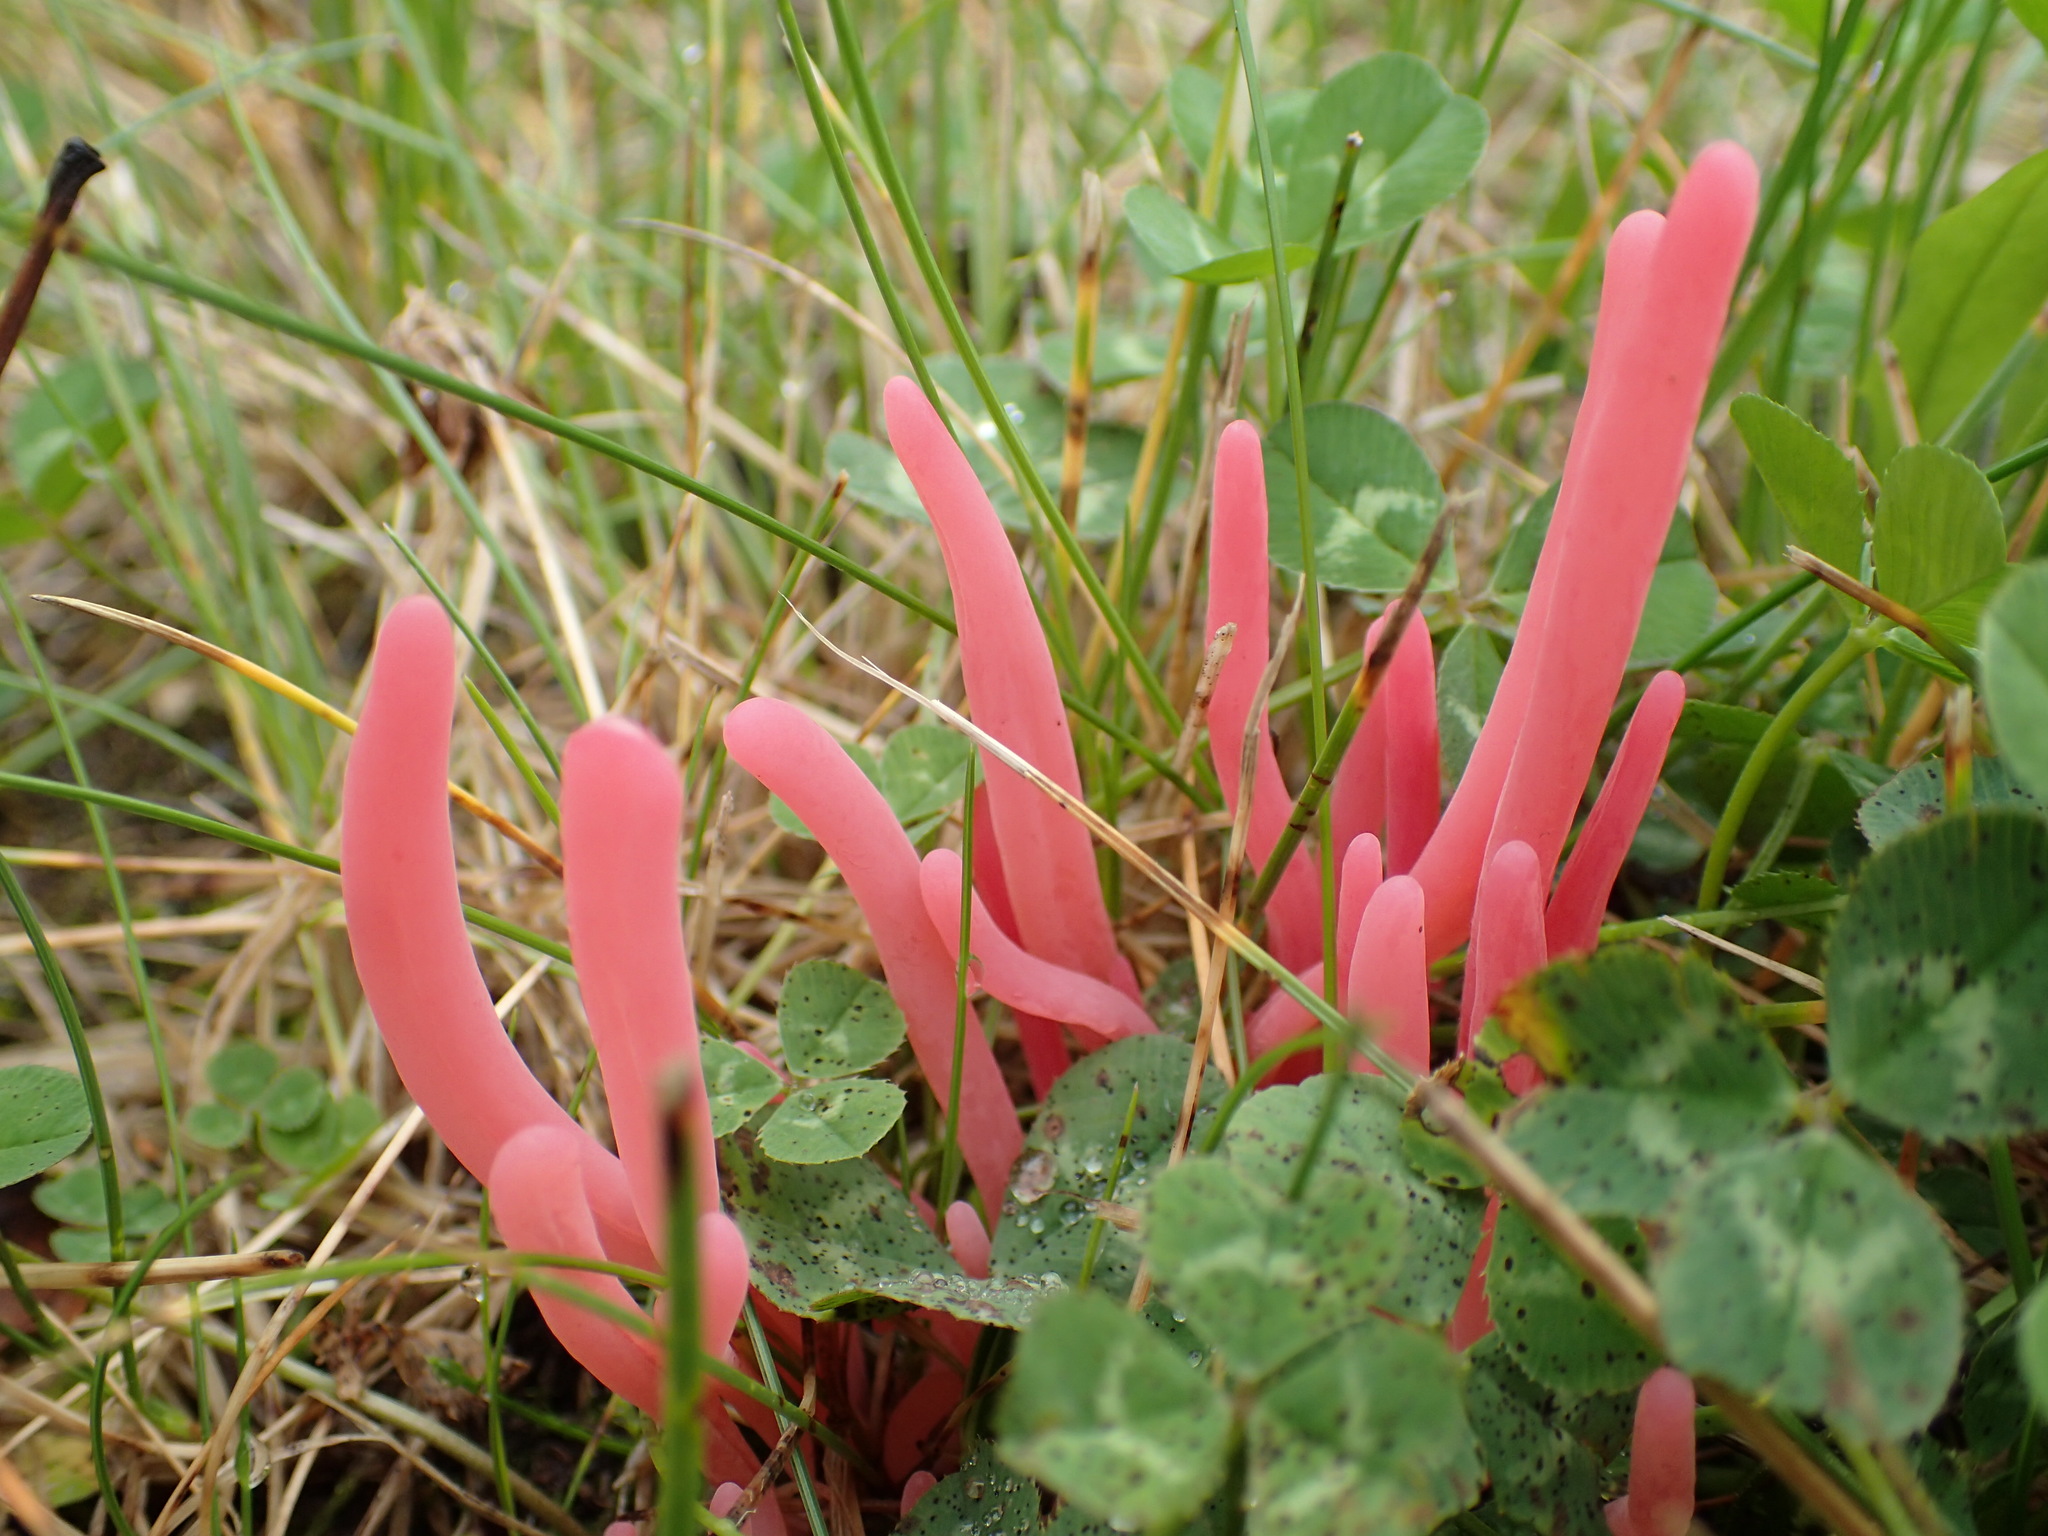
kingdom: Fungi
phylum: Basidiomycota
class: Agaricomycetes
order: Agaricales
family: Clavariaceae
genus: Clavaria
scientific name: Clavaria rosea
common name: Rose spindles
